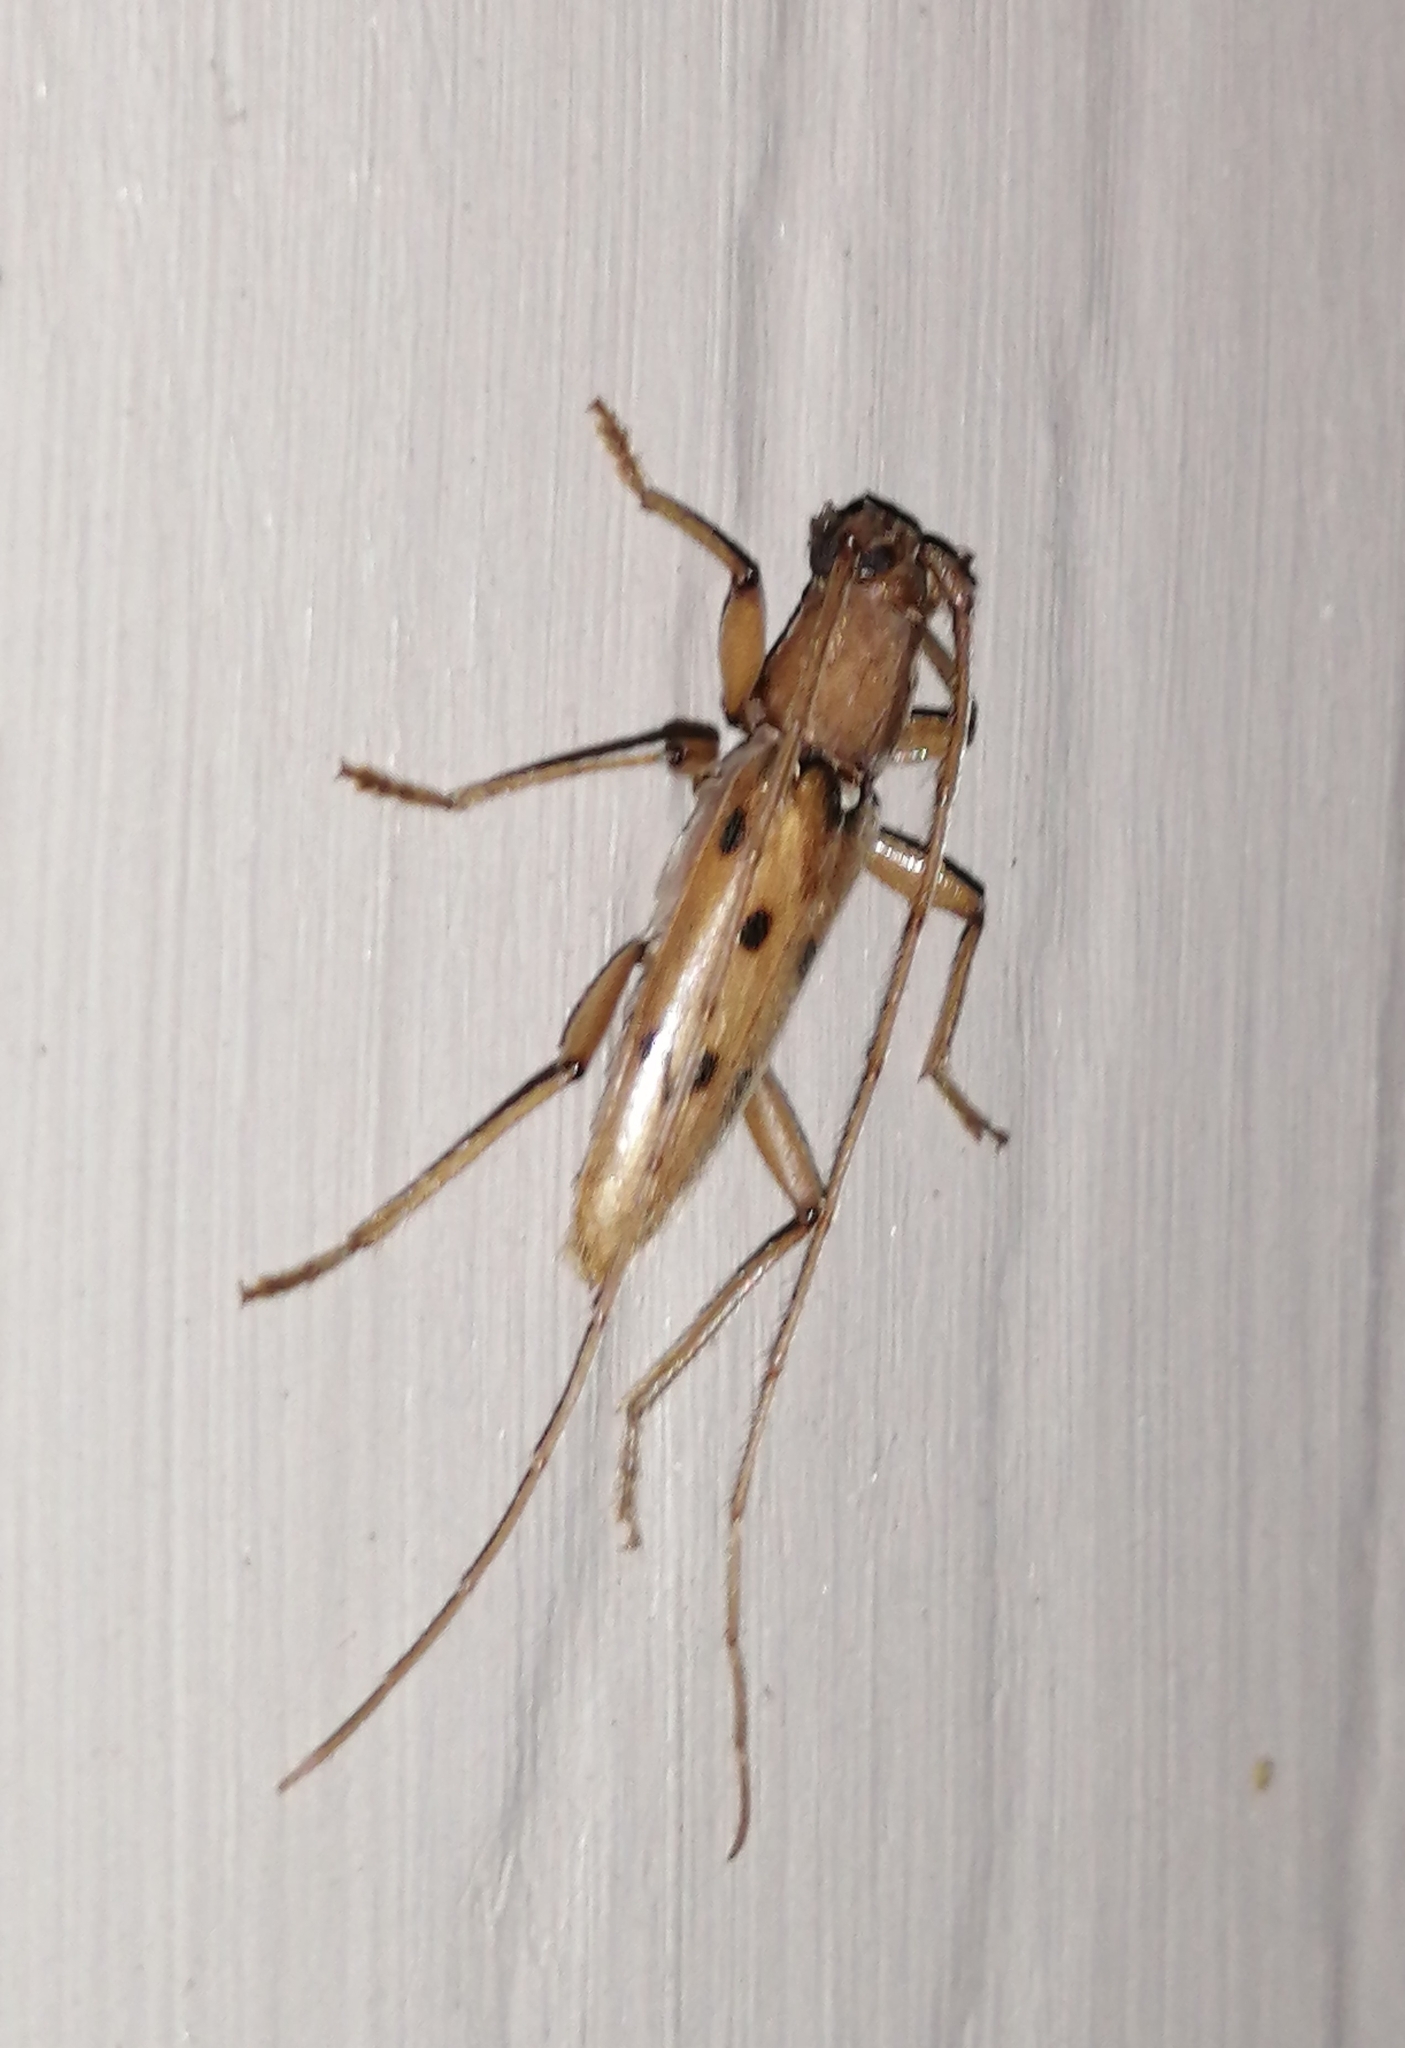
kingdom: Animalia
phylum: Arthropoda
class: Insecta
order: Coleoptera
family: Cerambycidae
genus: Achryson
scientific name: Achryson surinamum
